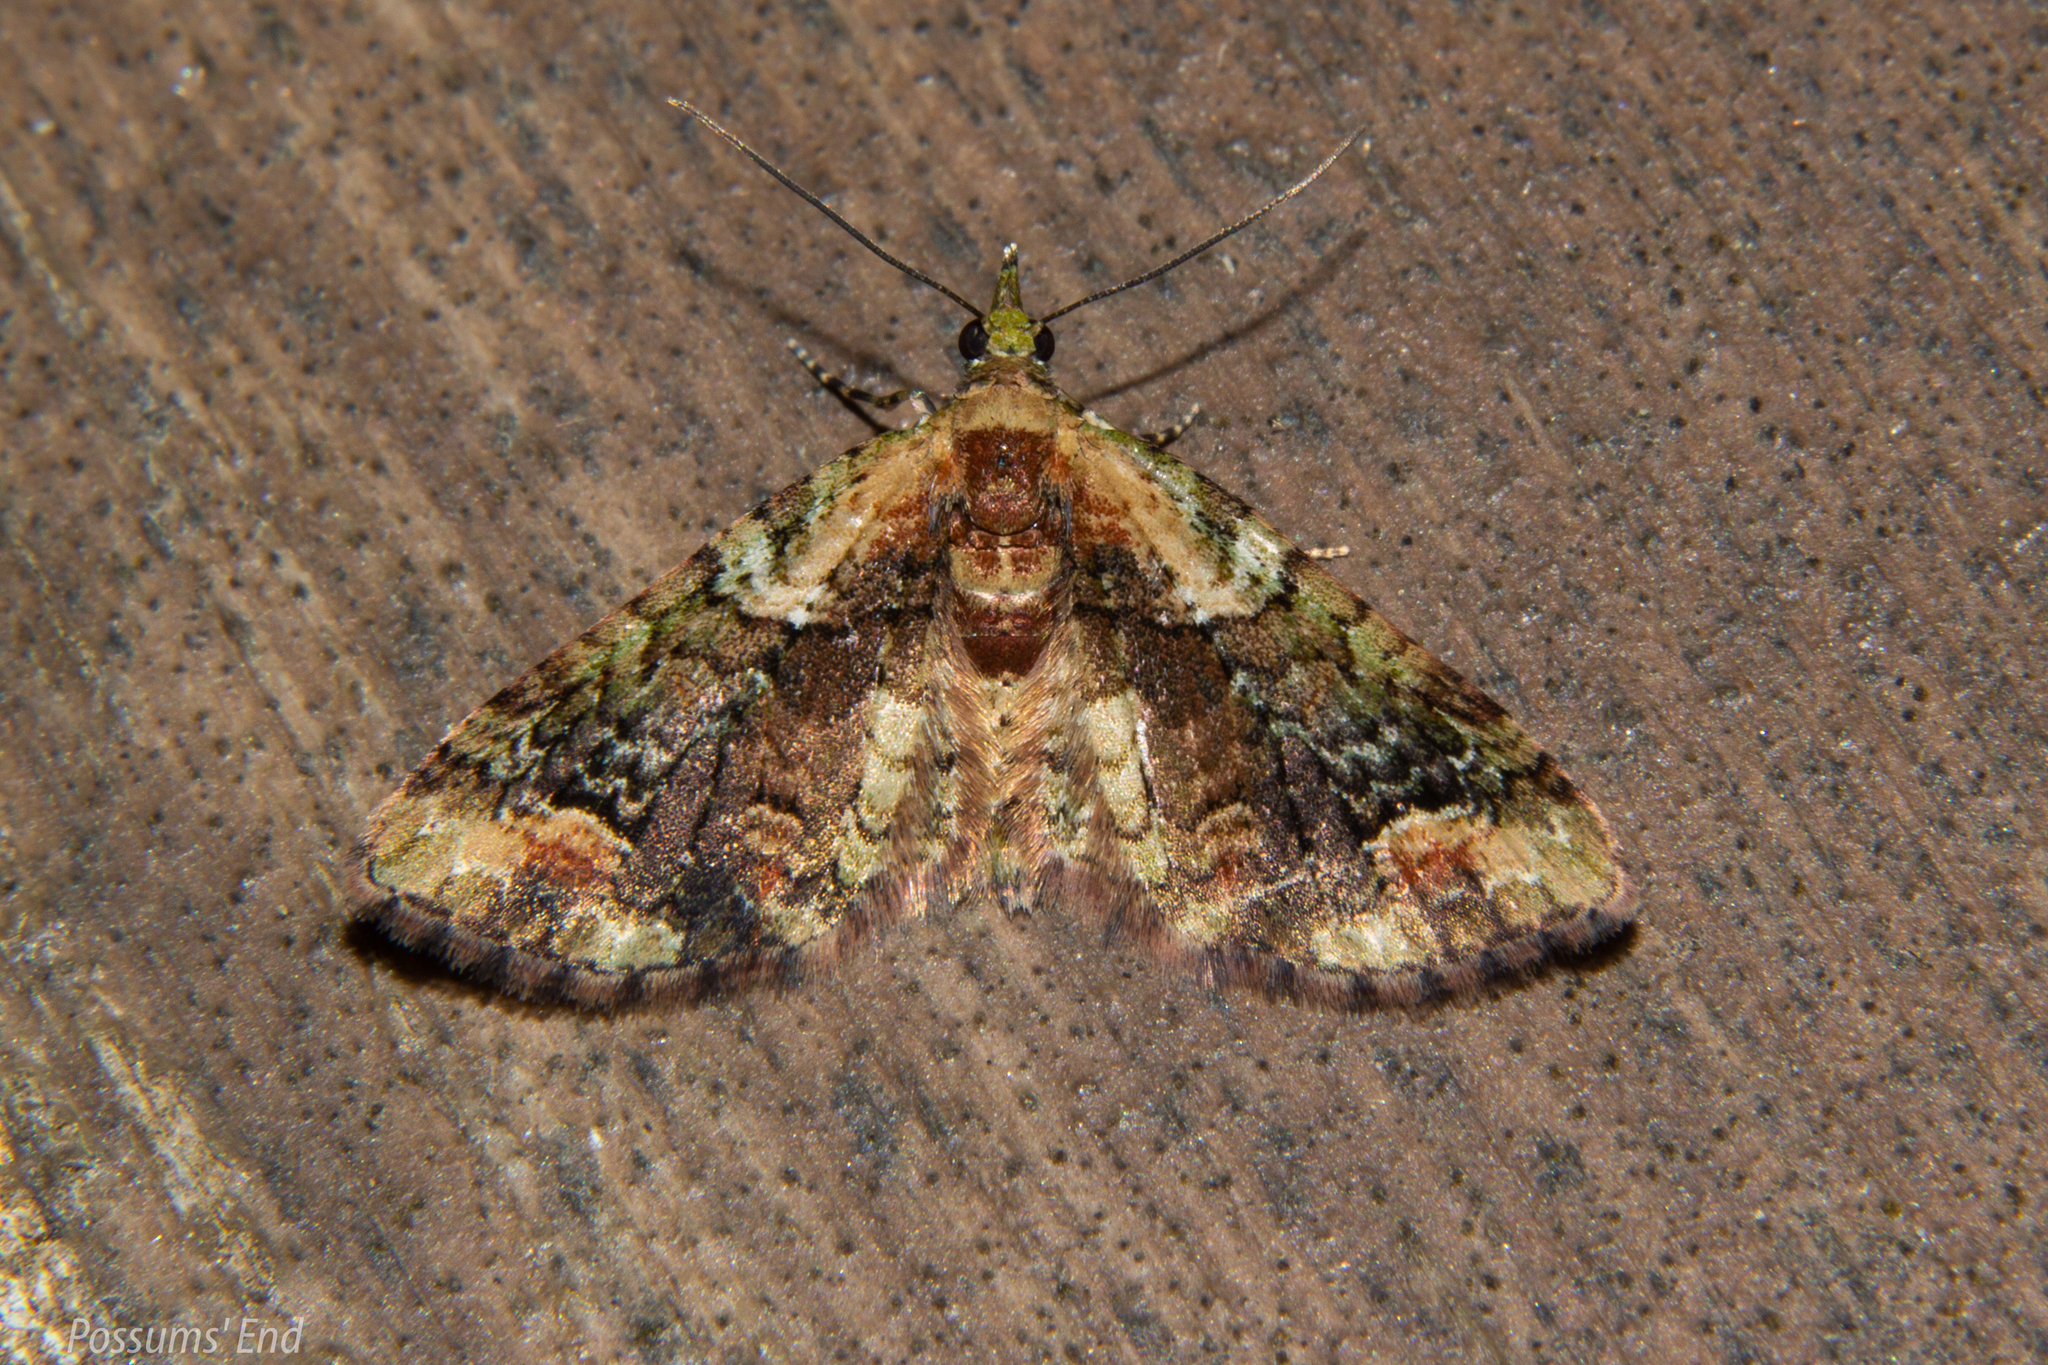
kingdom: Animalia
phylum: Arthropoda
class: Insecta
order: Lepidoptera
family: Geometridae
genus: Idaea
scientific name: Idaea mutanda
